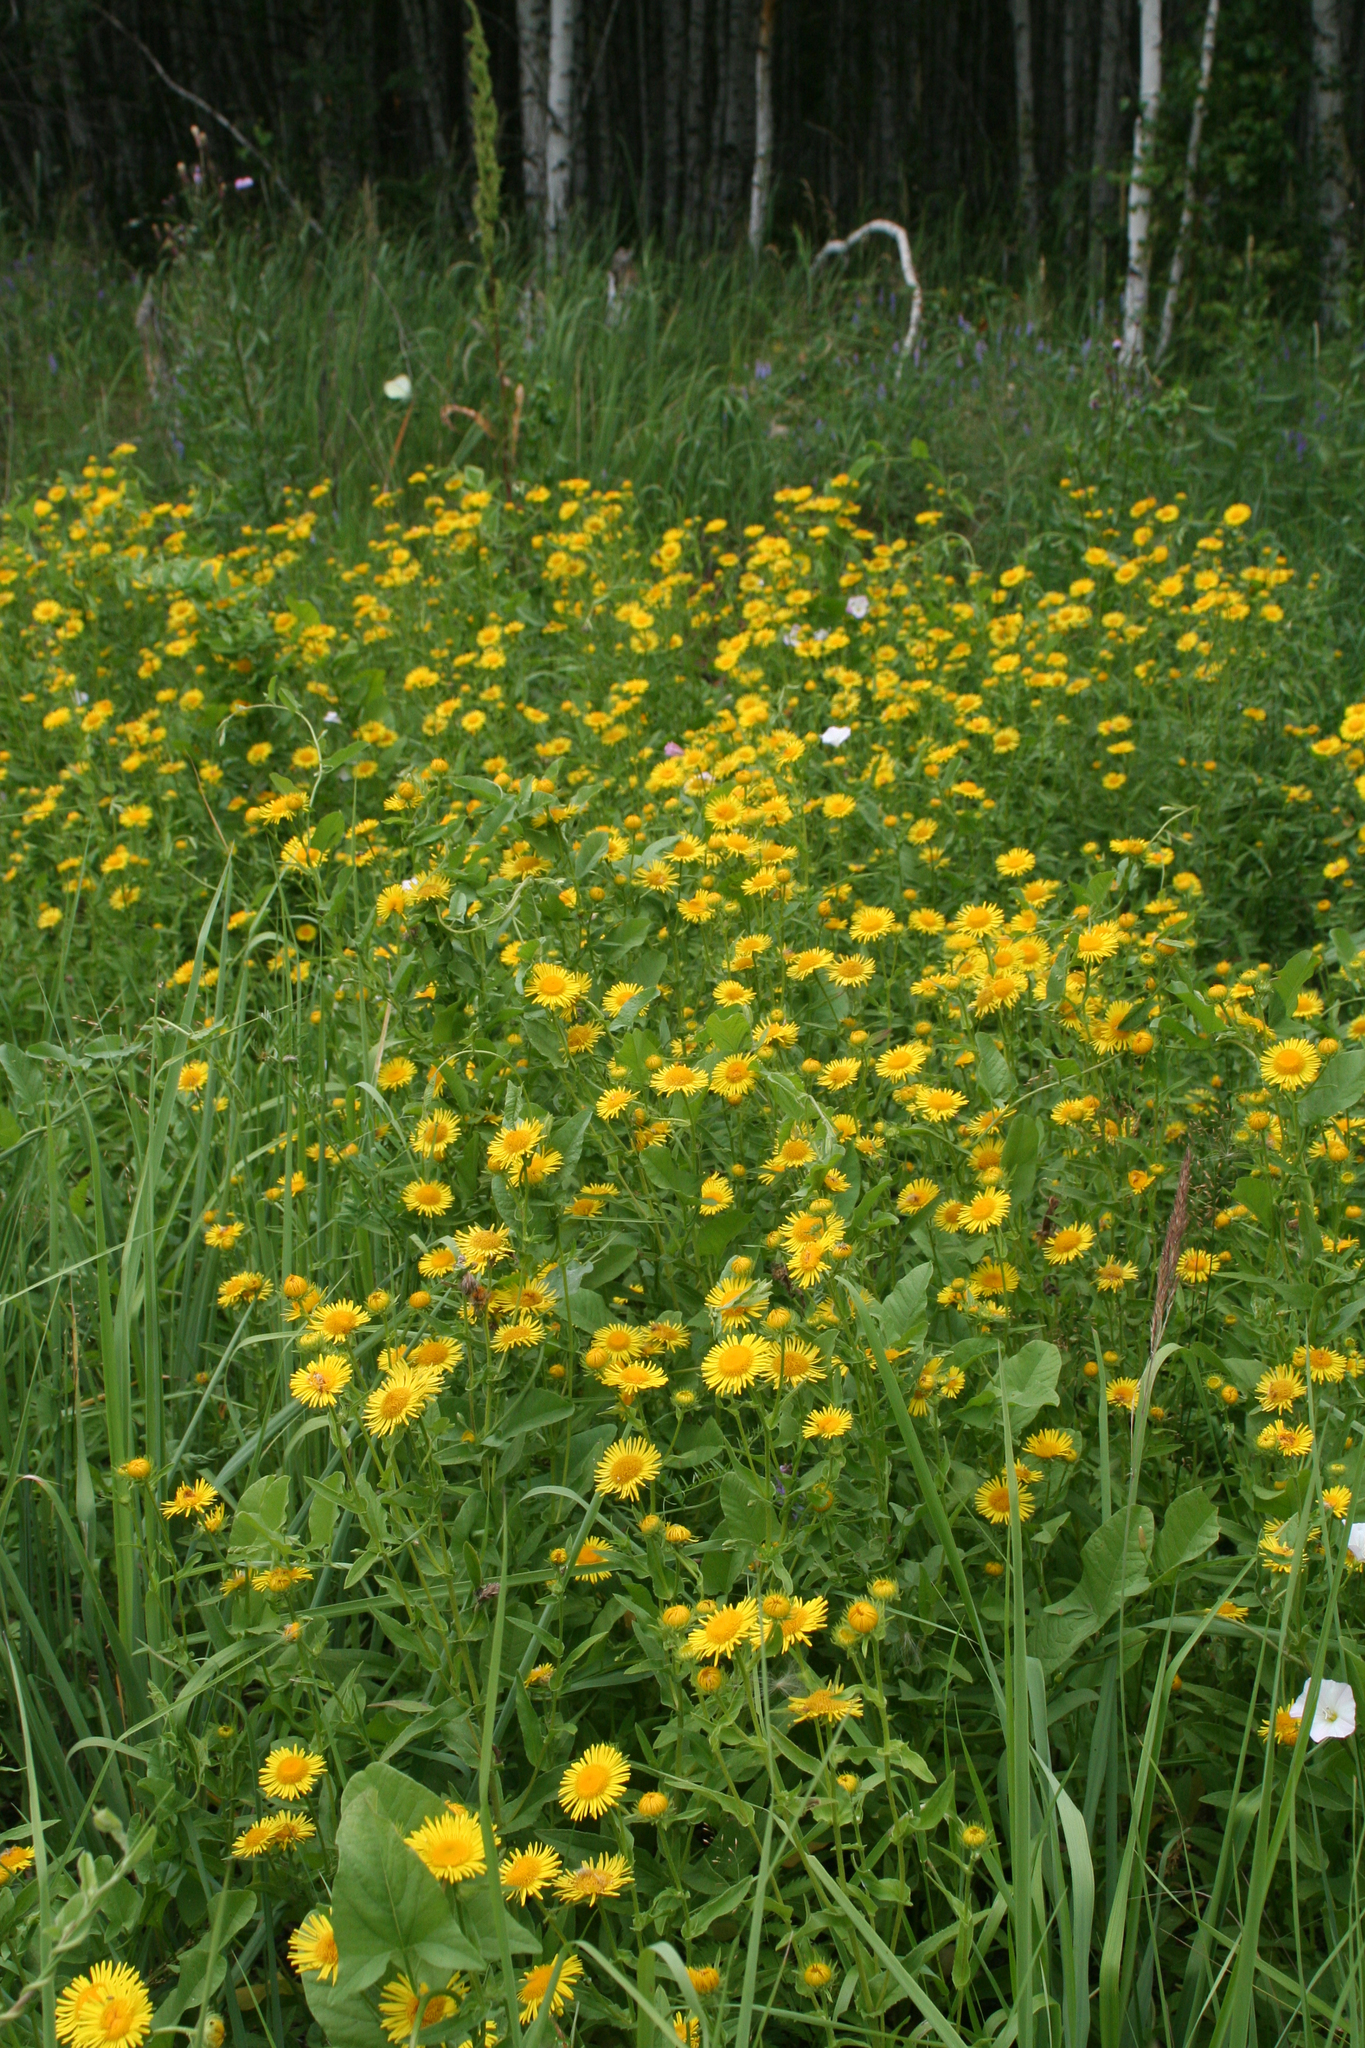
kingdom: Plantae
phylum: Tracheophyta
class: Magnoliopsida
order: Asterales
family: Asteraceae
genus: Pentanema
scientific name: Pentanema salicinum
